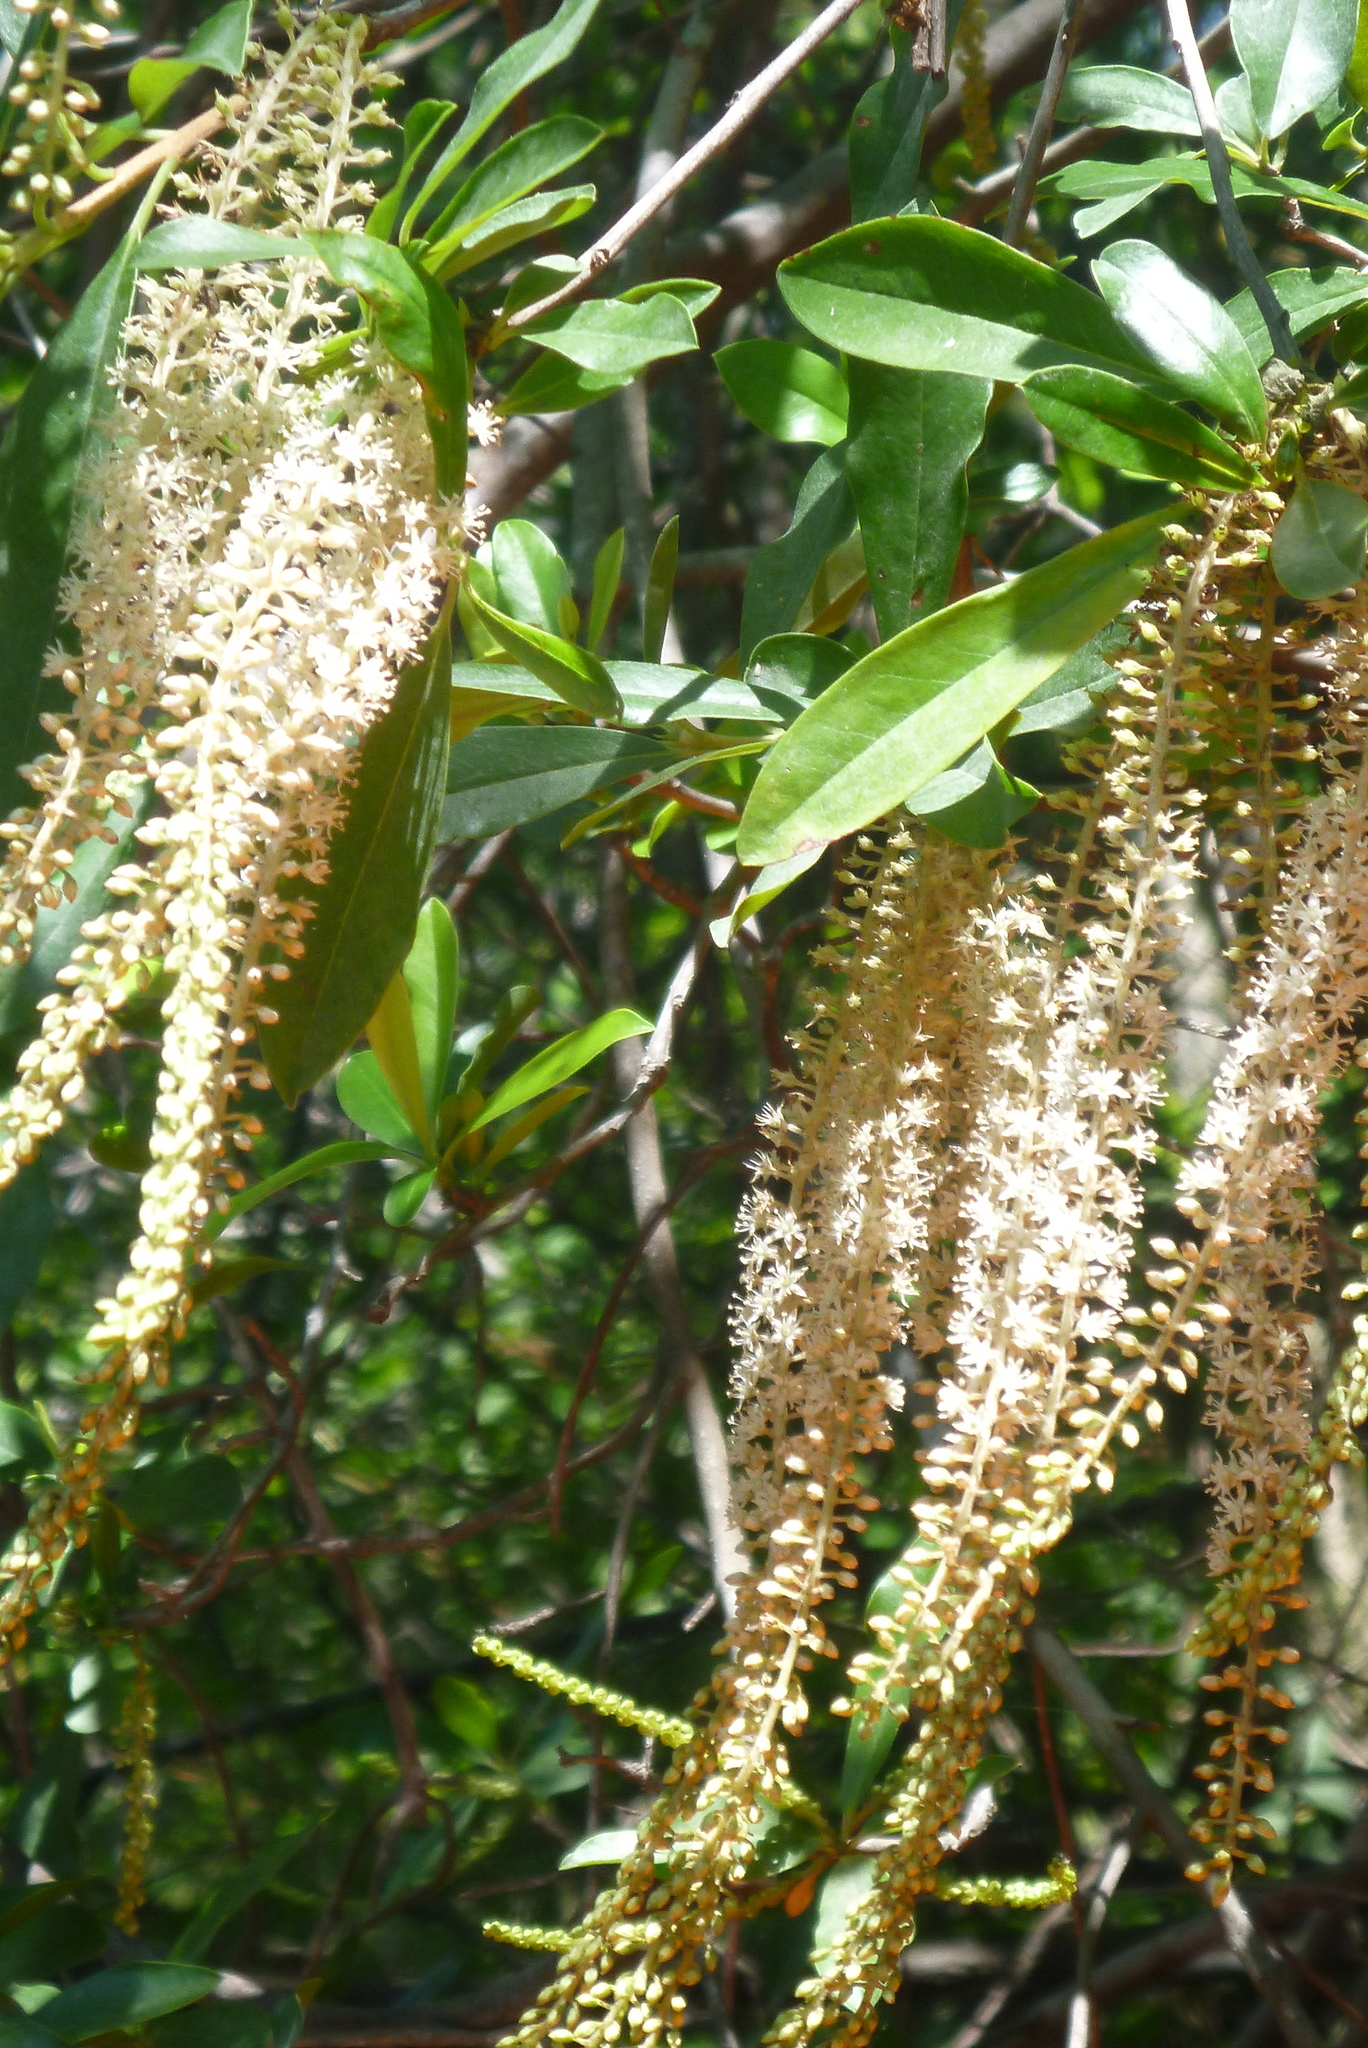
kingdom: Plantae
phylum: Tracheophyta
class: Magnoliopsida
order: Ericales
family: Cyrillaceae
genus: Cyrilla
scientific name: Cyrilla racemiflora
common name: Black titi
